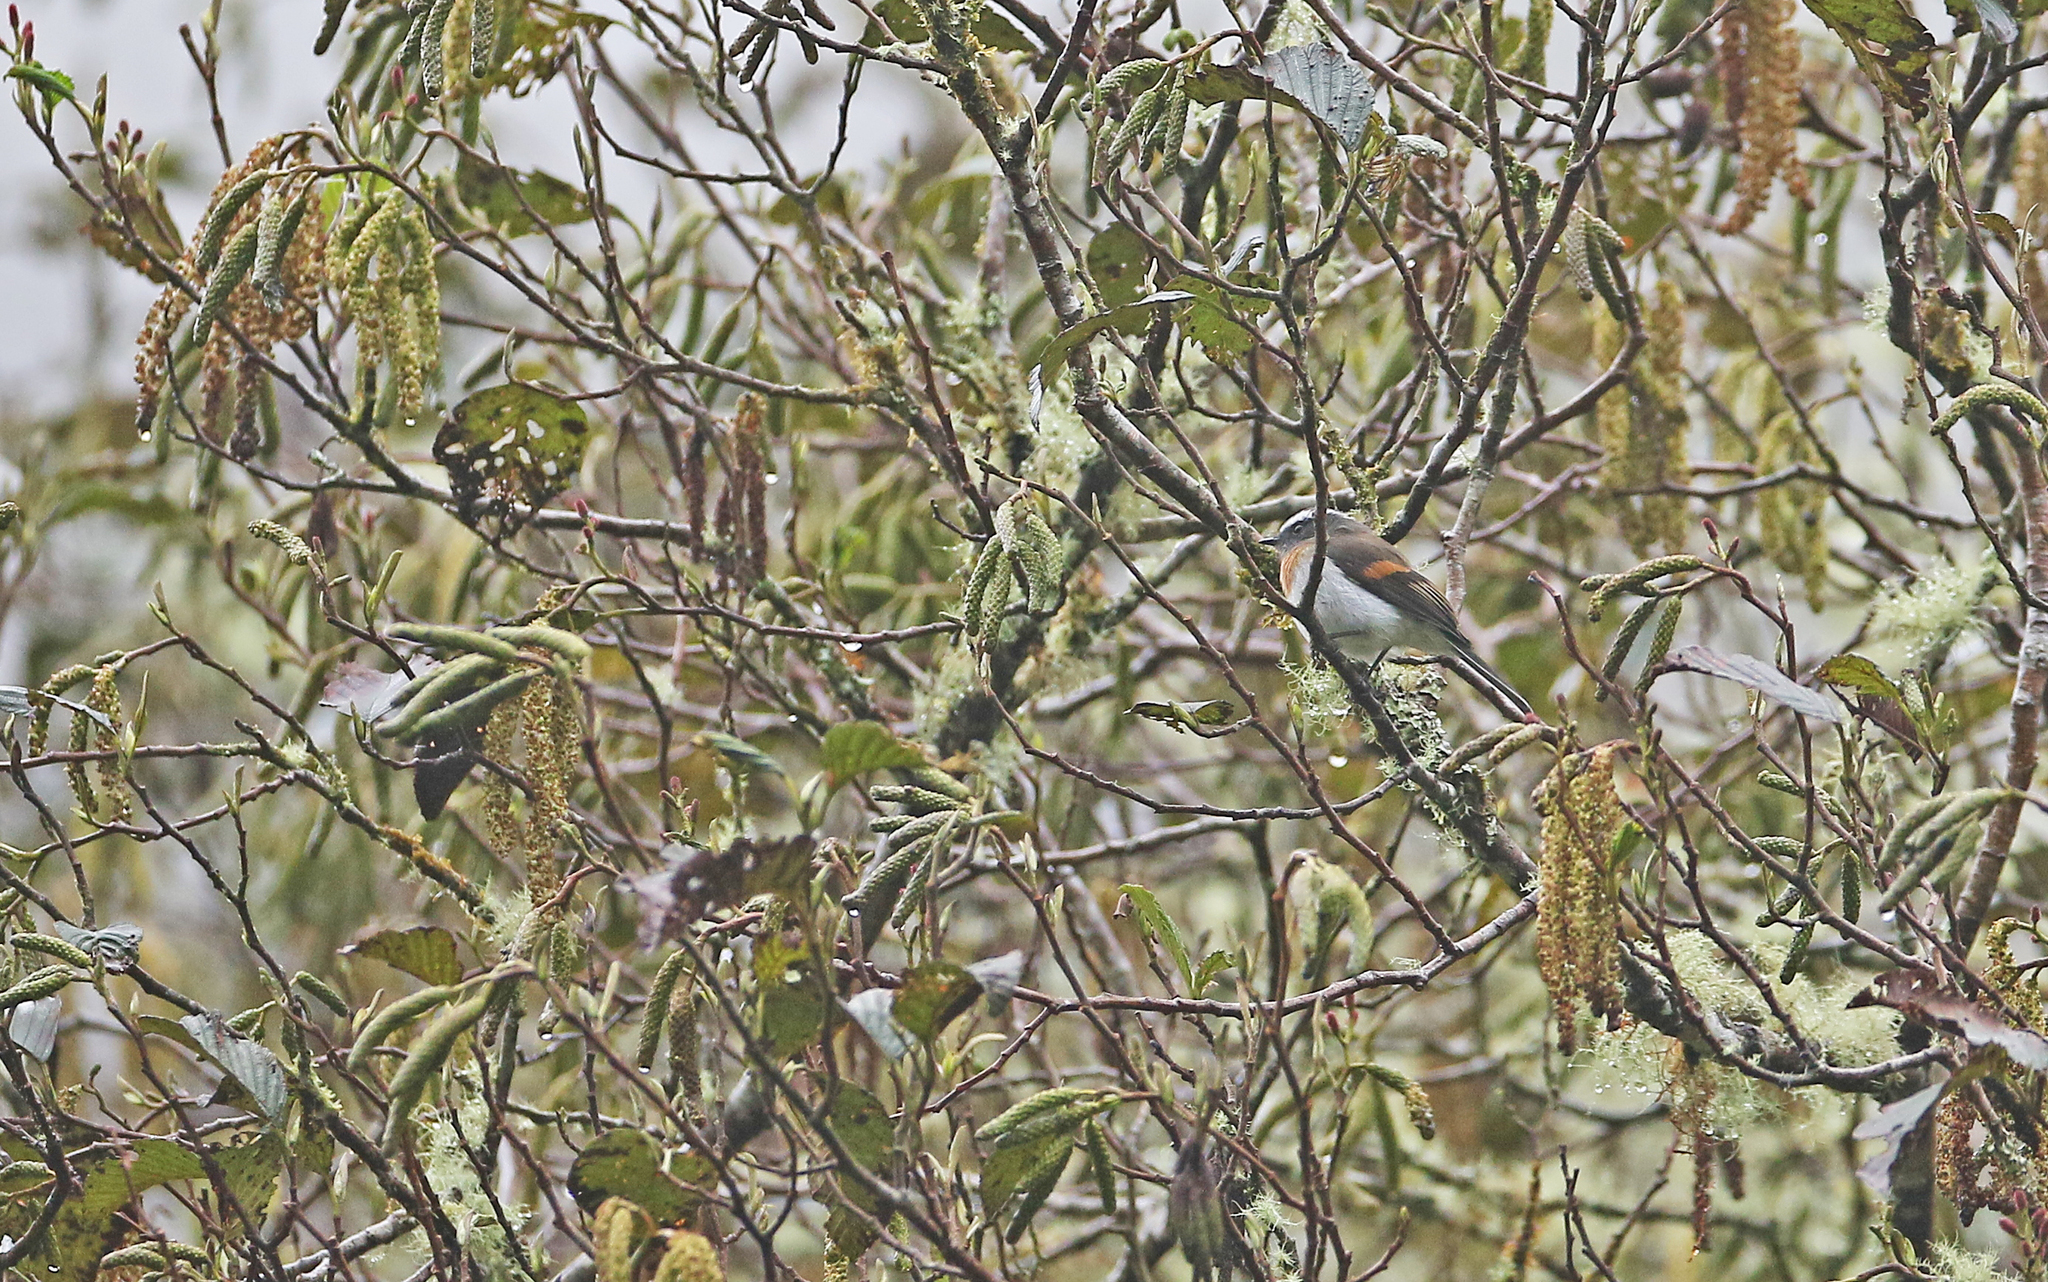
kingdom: Animalia
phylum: Chordata
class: Aves
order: Passeriformes
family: Tyrannidae
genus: Ochthoeca
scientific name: Ochthoeca rufipectoralis
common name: Rufous-breasted chat-tyrant
